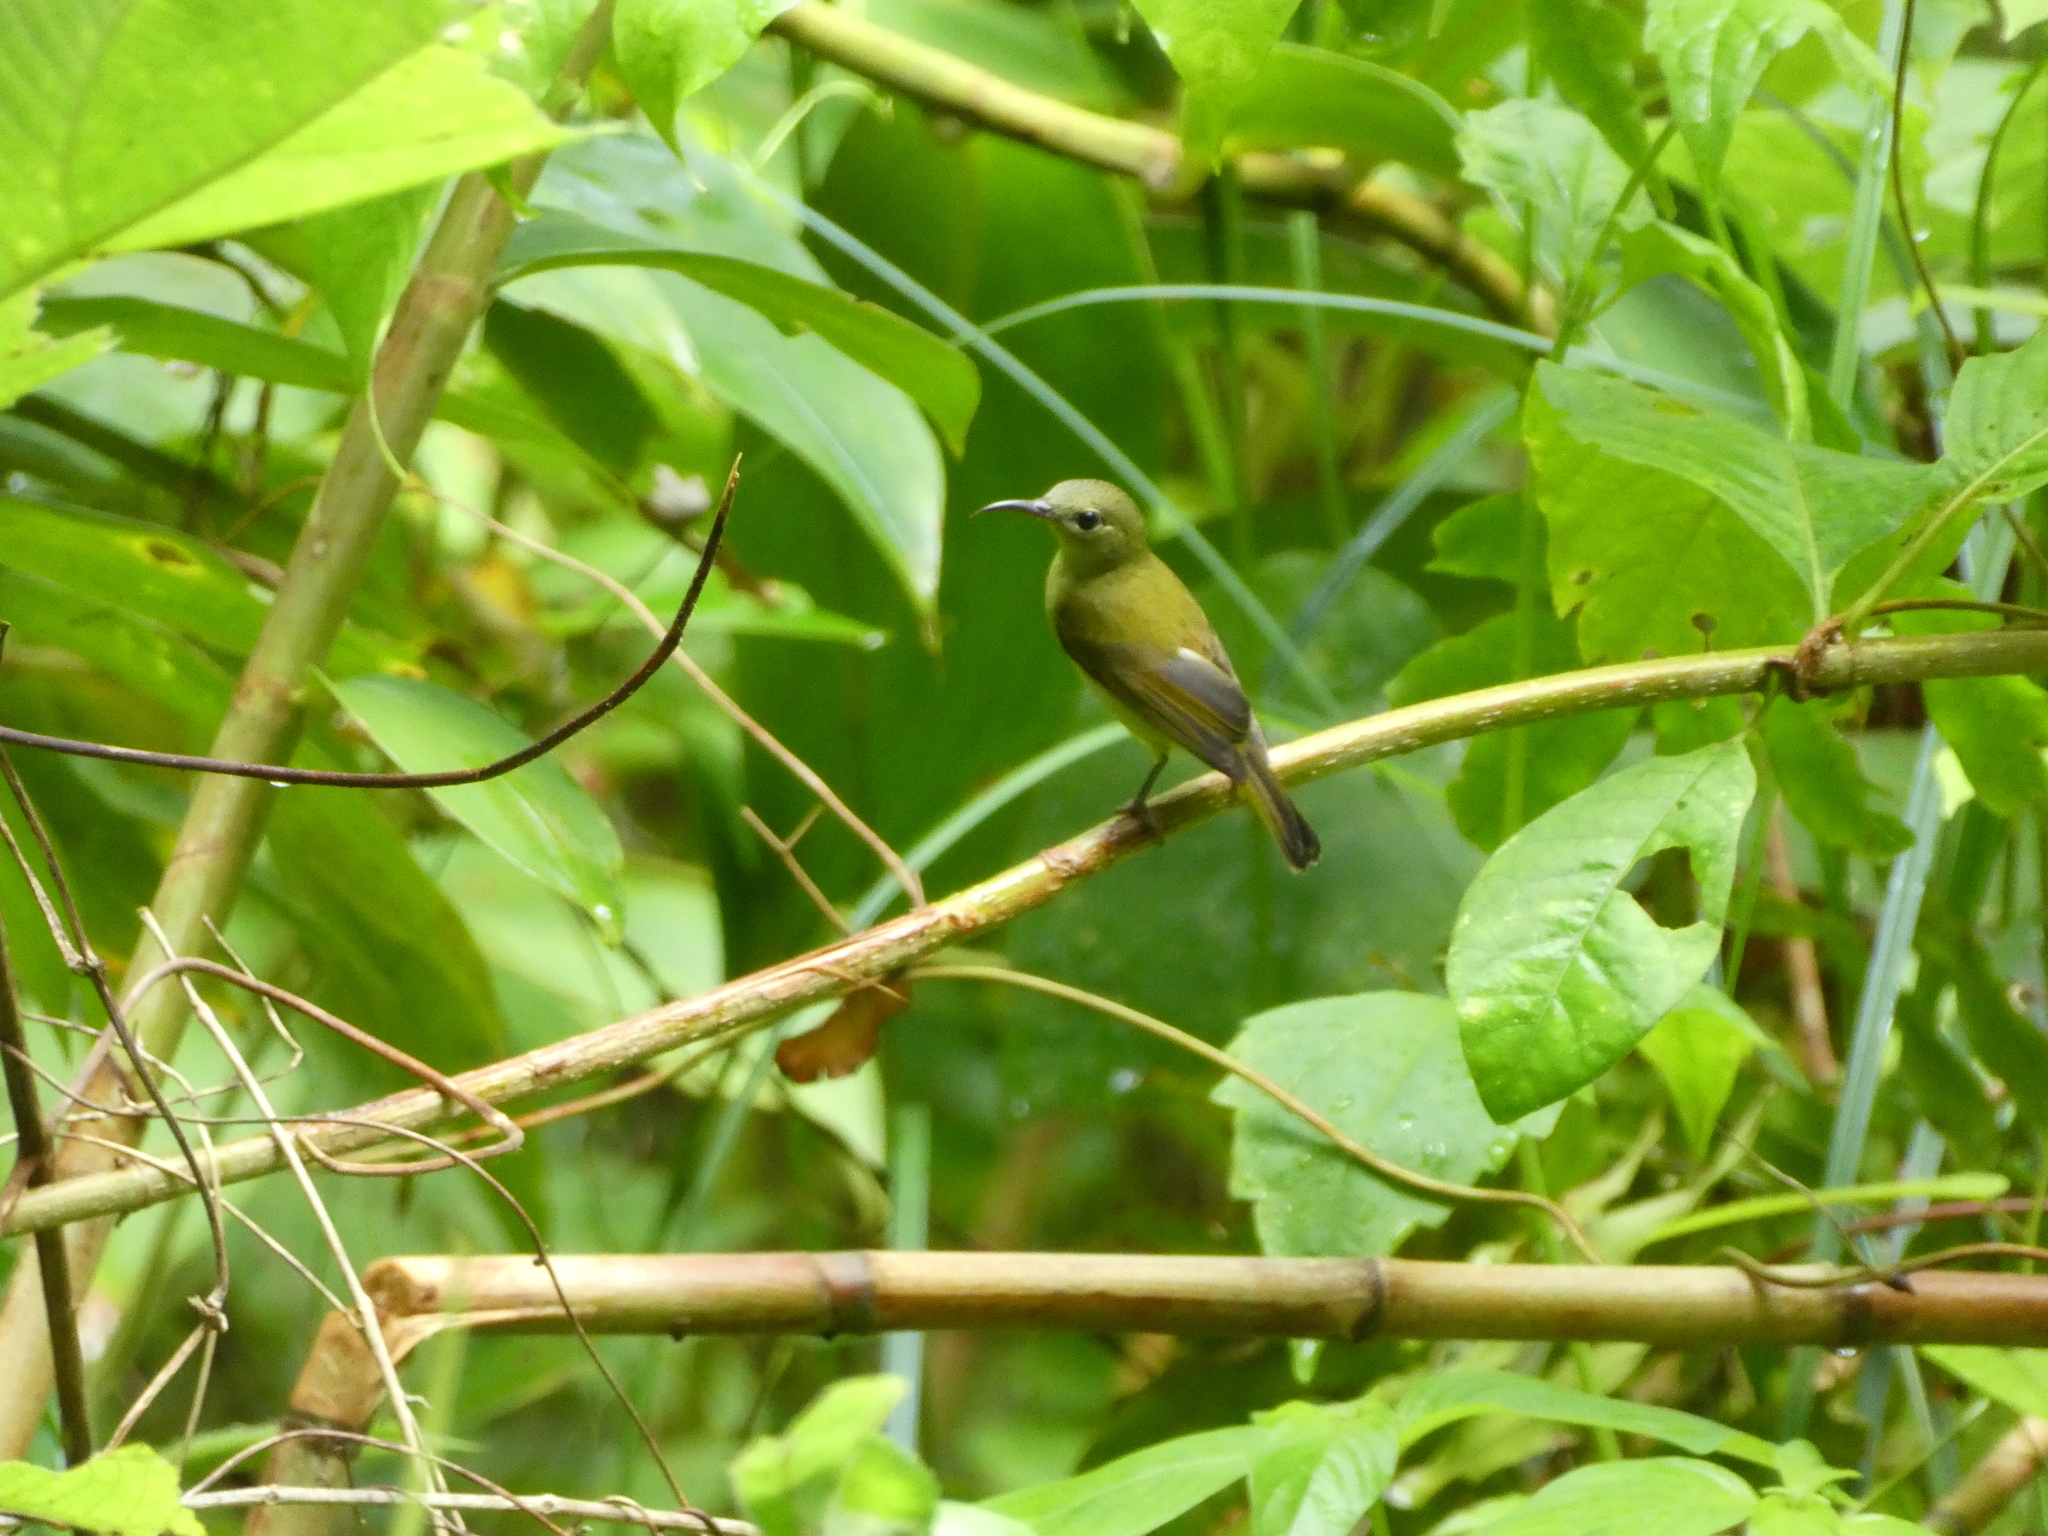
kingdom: Animalia
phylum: Chordata
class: Aves
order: Passeriformes
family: Nectariniidae
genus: Arachnothera
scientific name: Arachnothera modesta
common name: Grey-breasted spiderhunter
